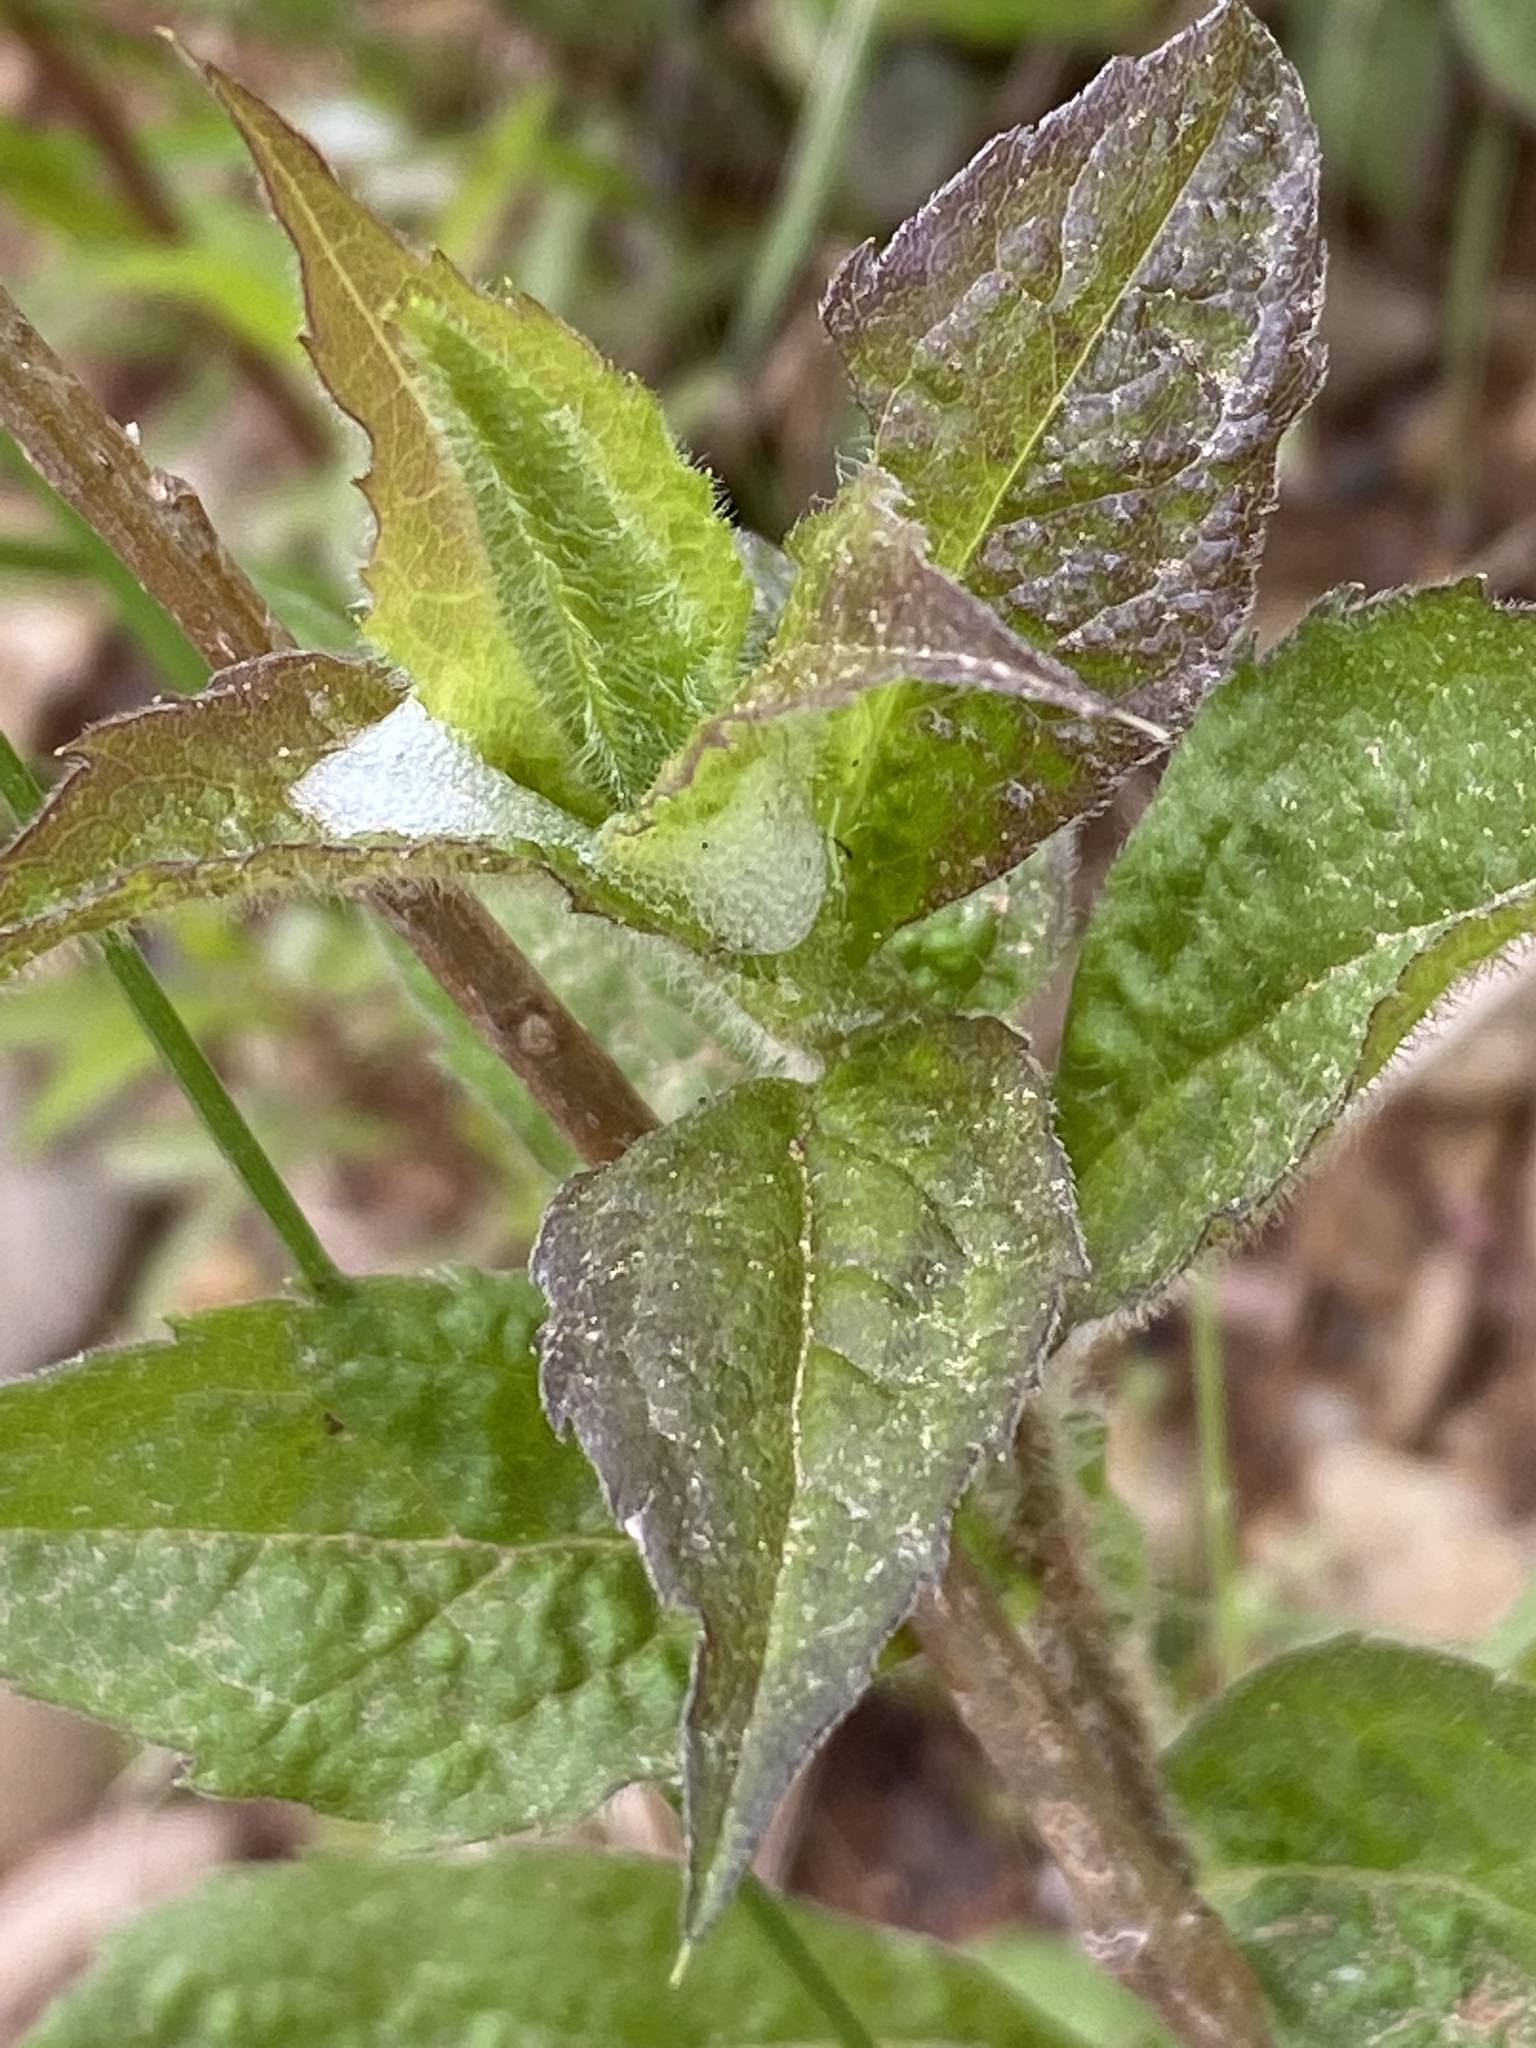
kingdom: Plantae
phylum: Tracheophyta
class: Magnoliopsida
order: Asterales
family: Asteraceae
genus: Solidago
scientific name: Solidago rugosa
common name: Rough-stemmed goldenrod
